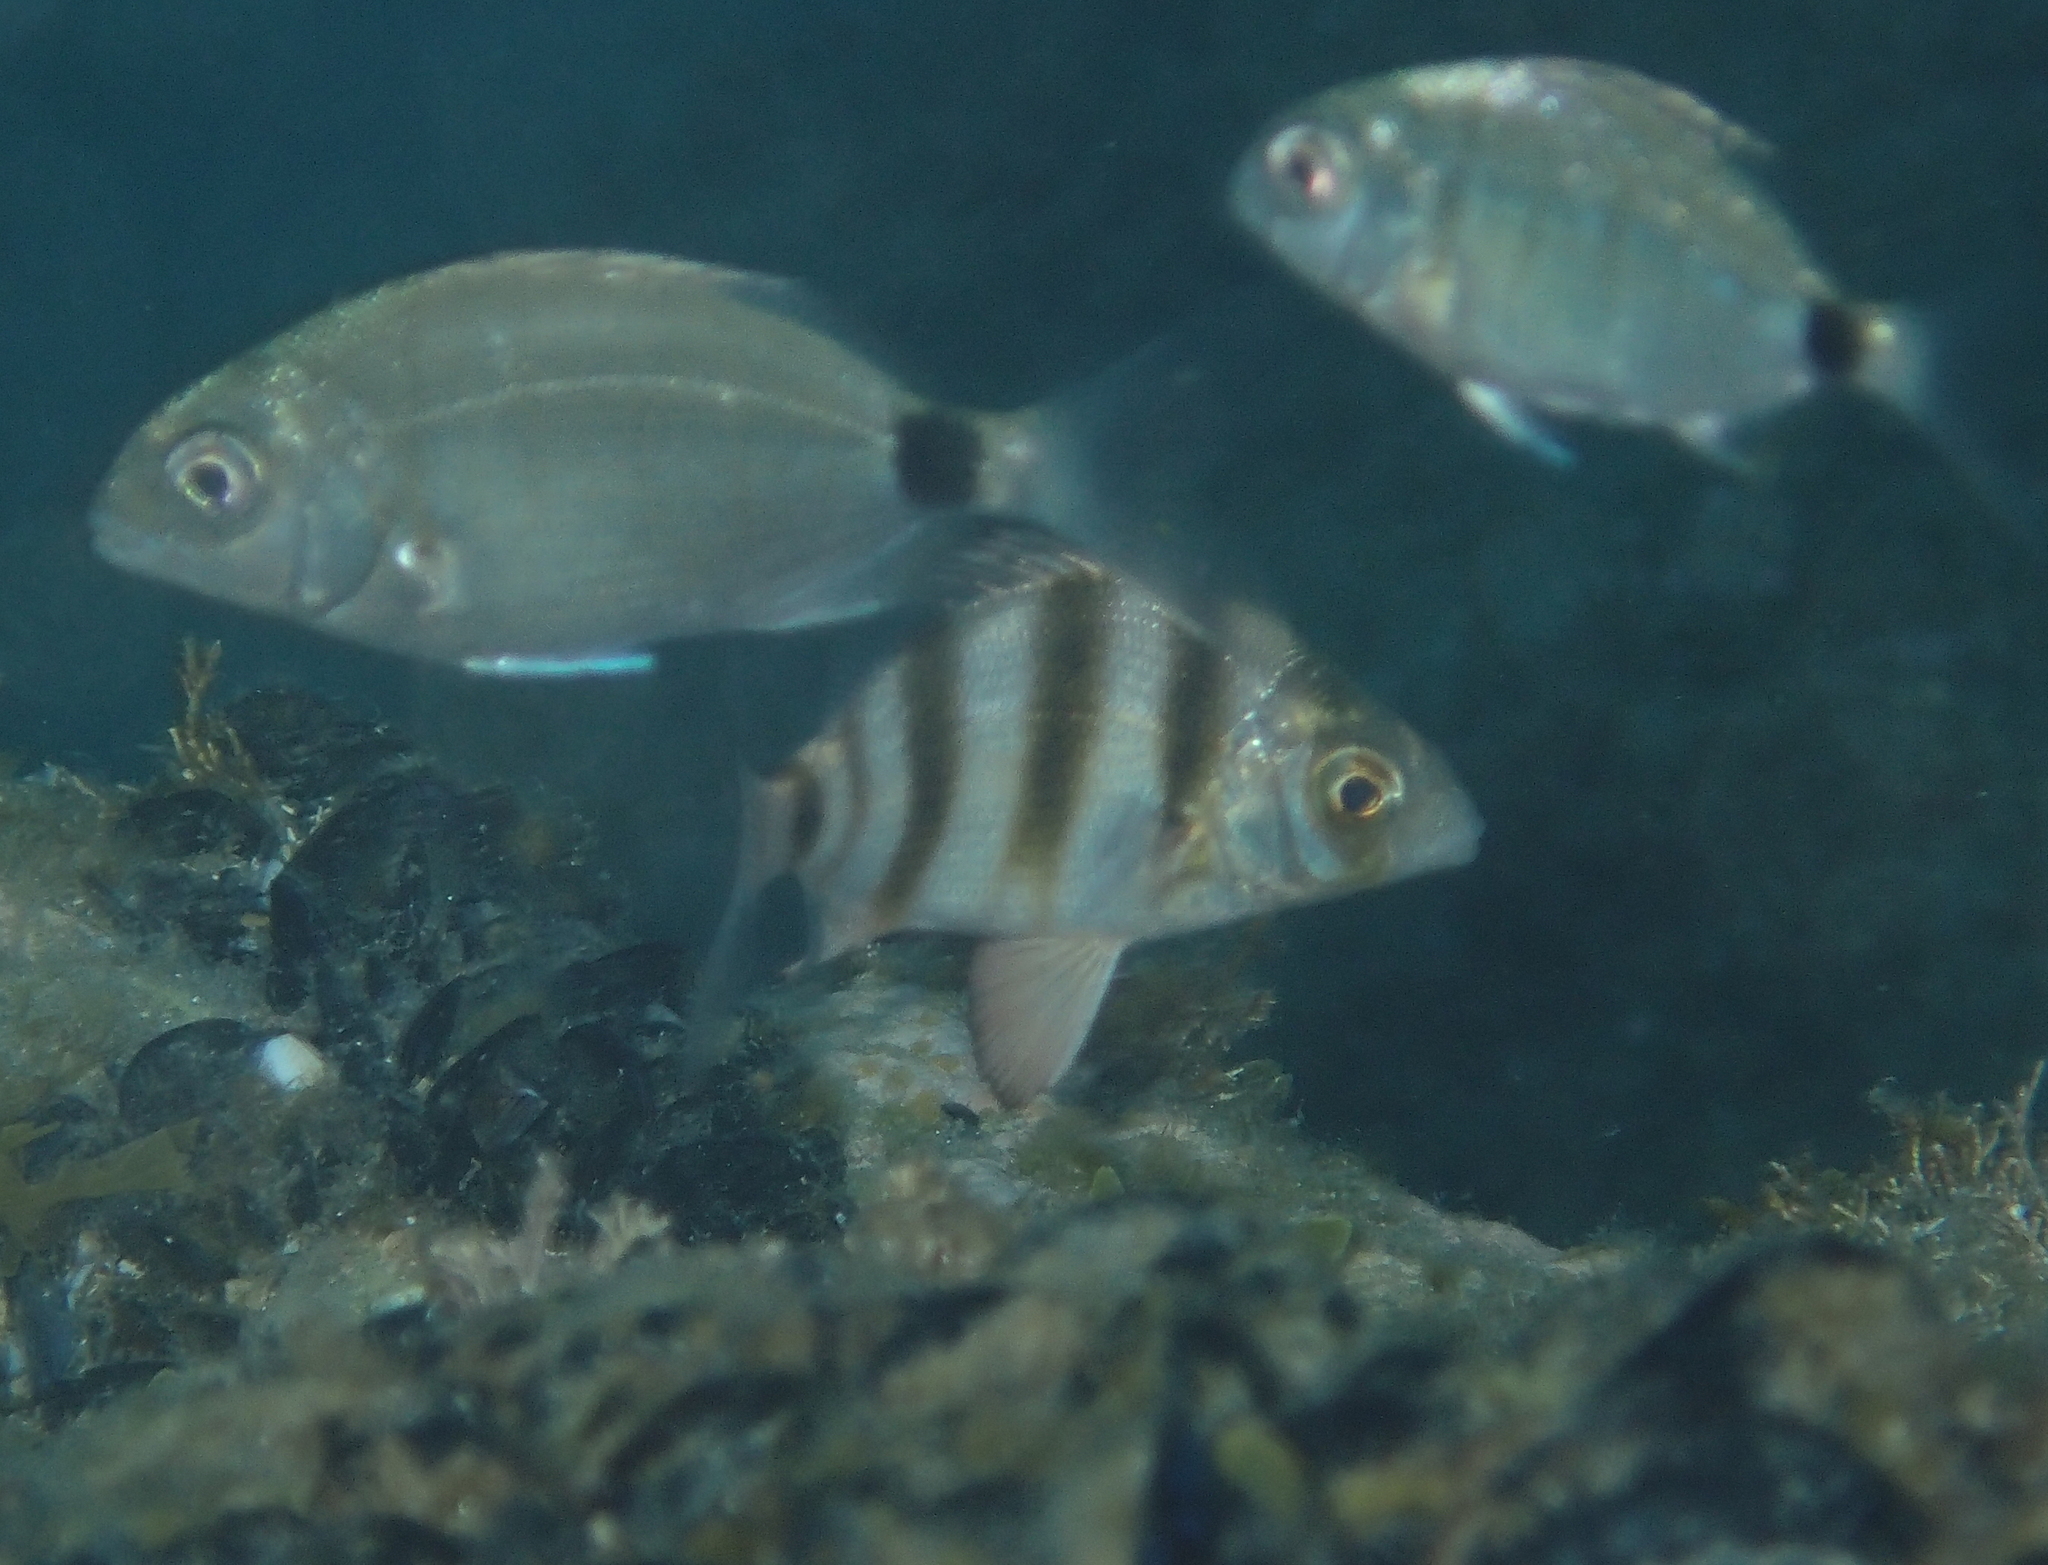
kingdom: Animalia
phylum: Chordata
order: Perciformes
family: Sparidae
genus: Diplodus
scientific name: Diplodus cervinus
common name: Oman porgy
